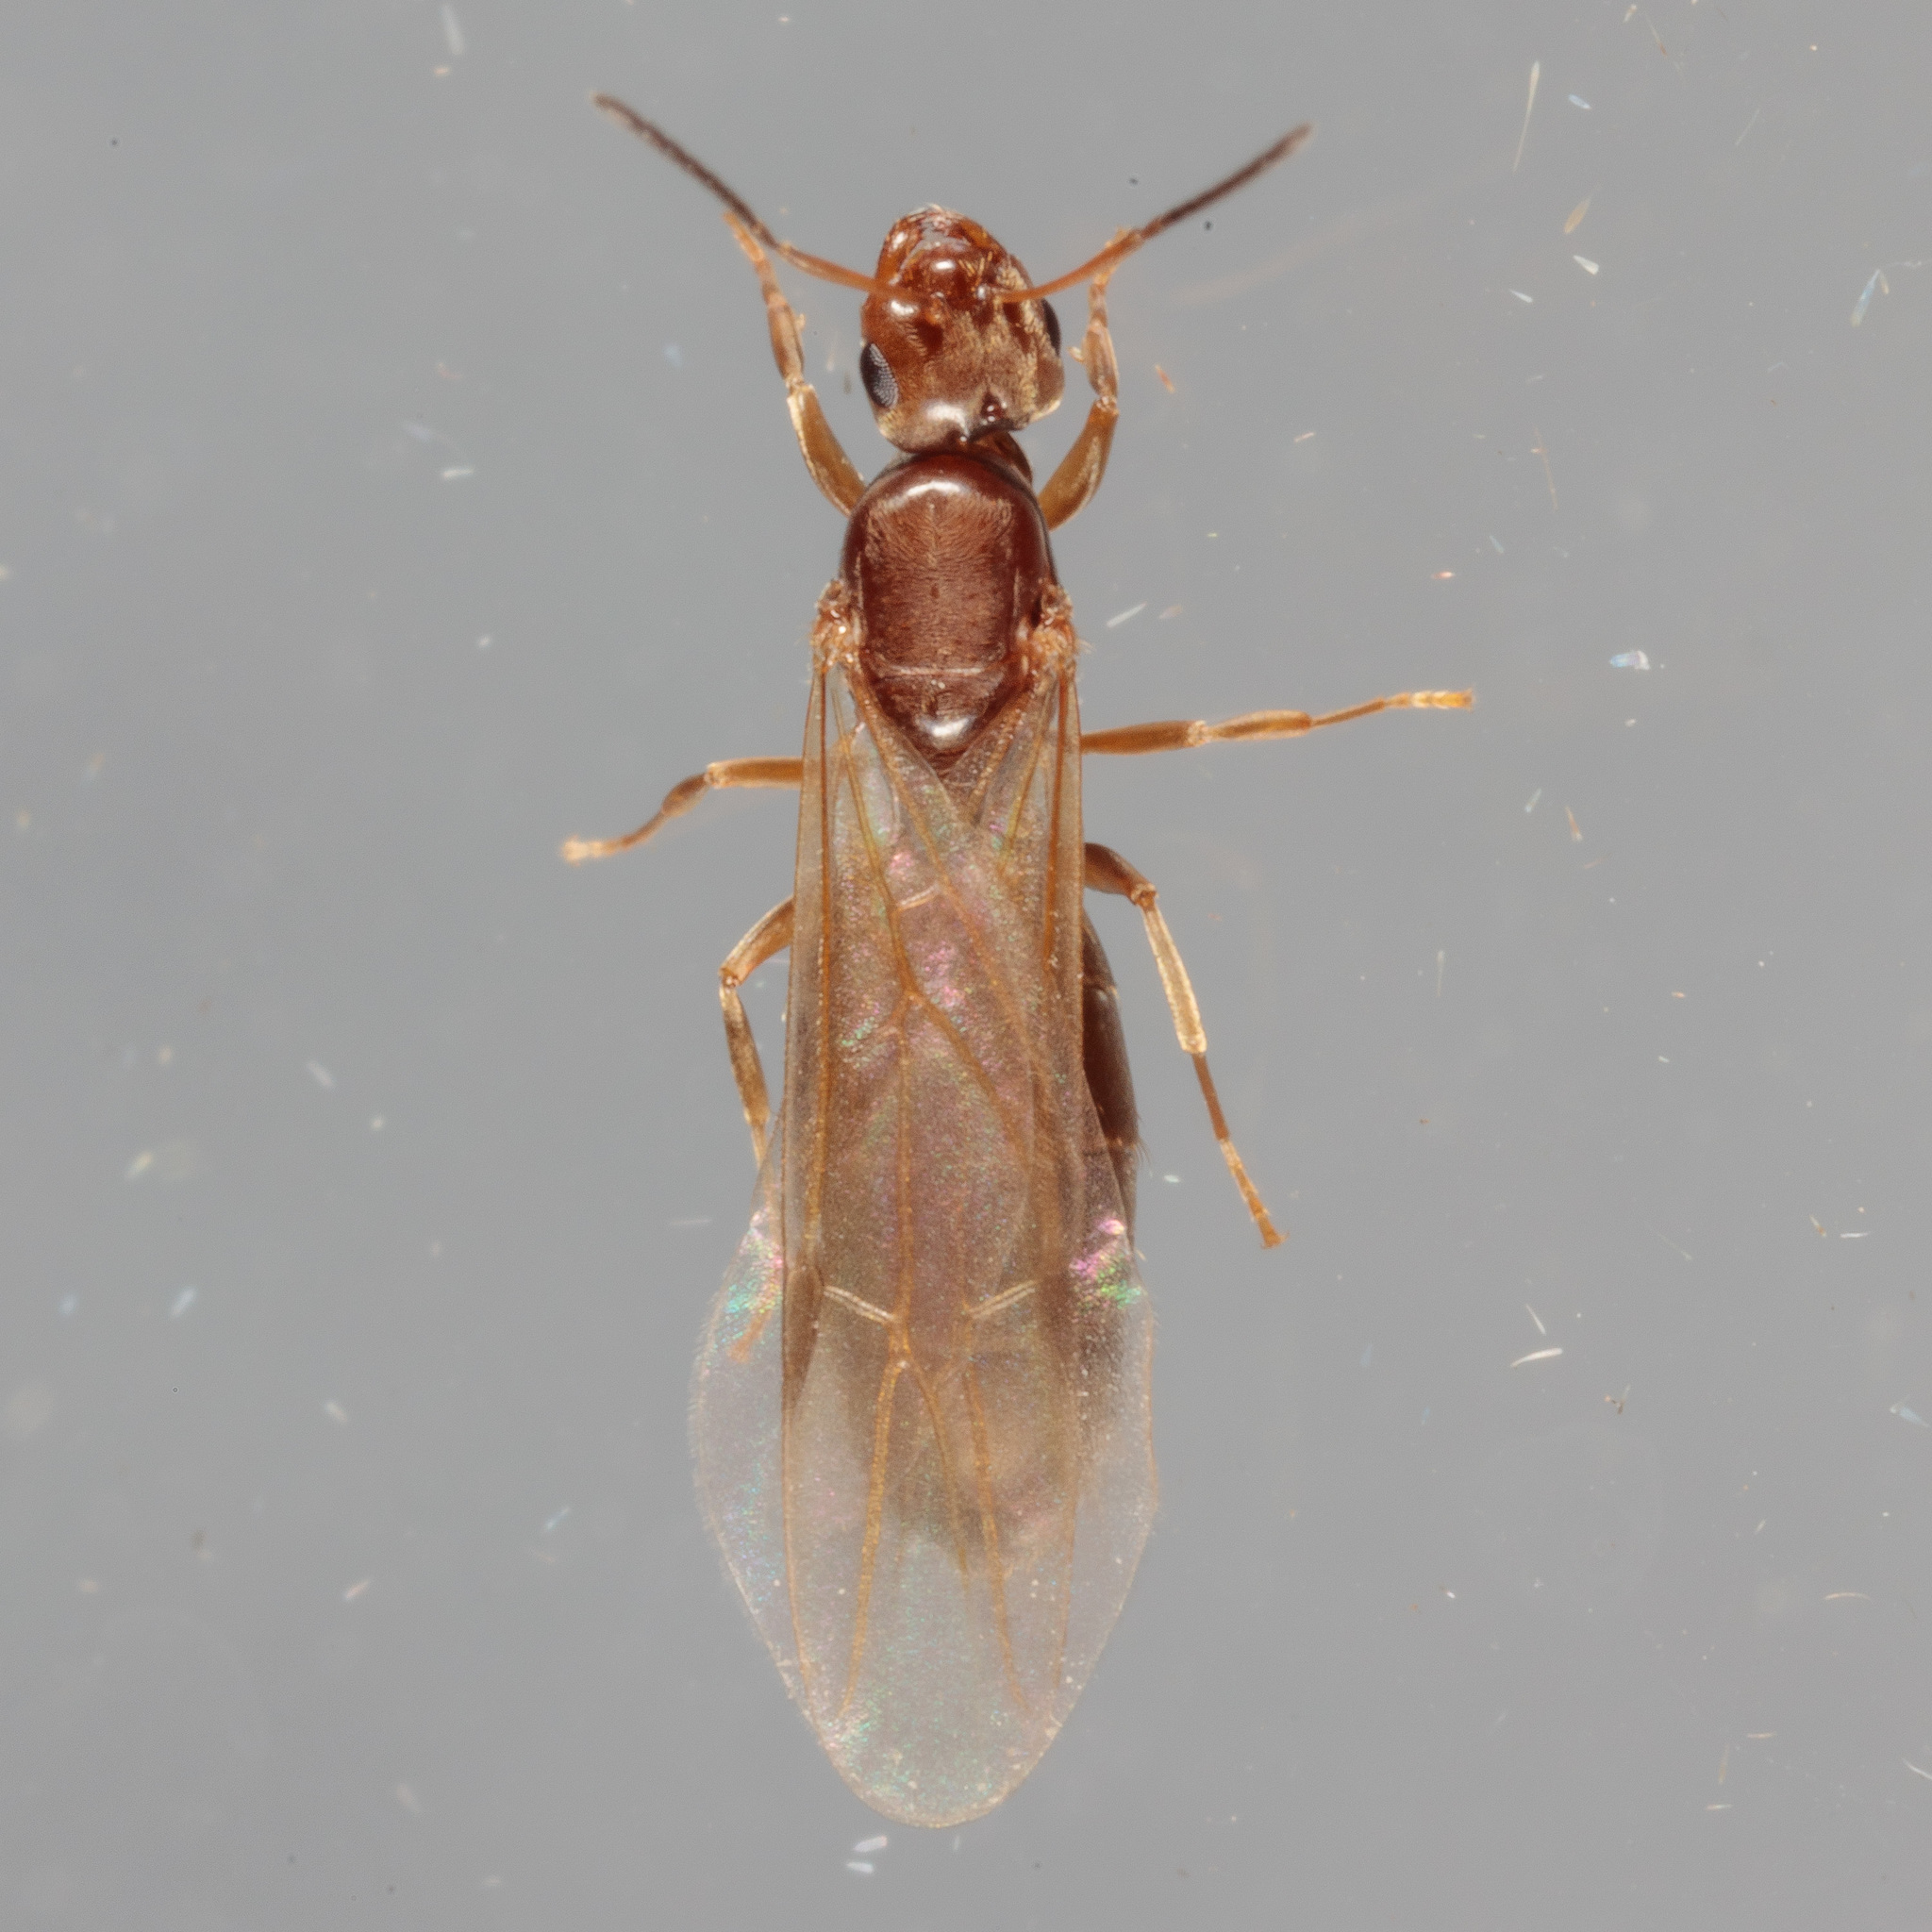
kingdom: Animalia
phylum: Arthropoda
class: Insecta
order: Hymenoptera
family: Formicidae
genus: Brachymyrmex
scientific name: Brachymyrmex patagonicus
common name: Dark rover ant
